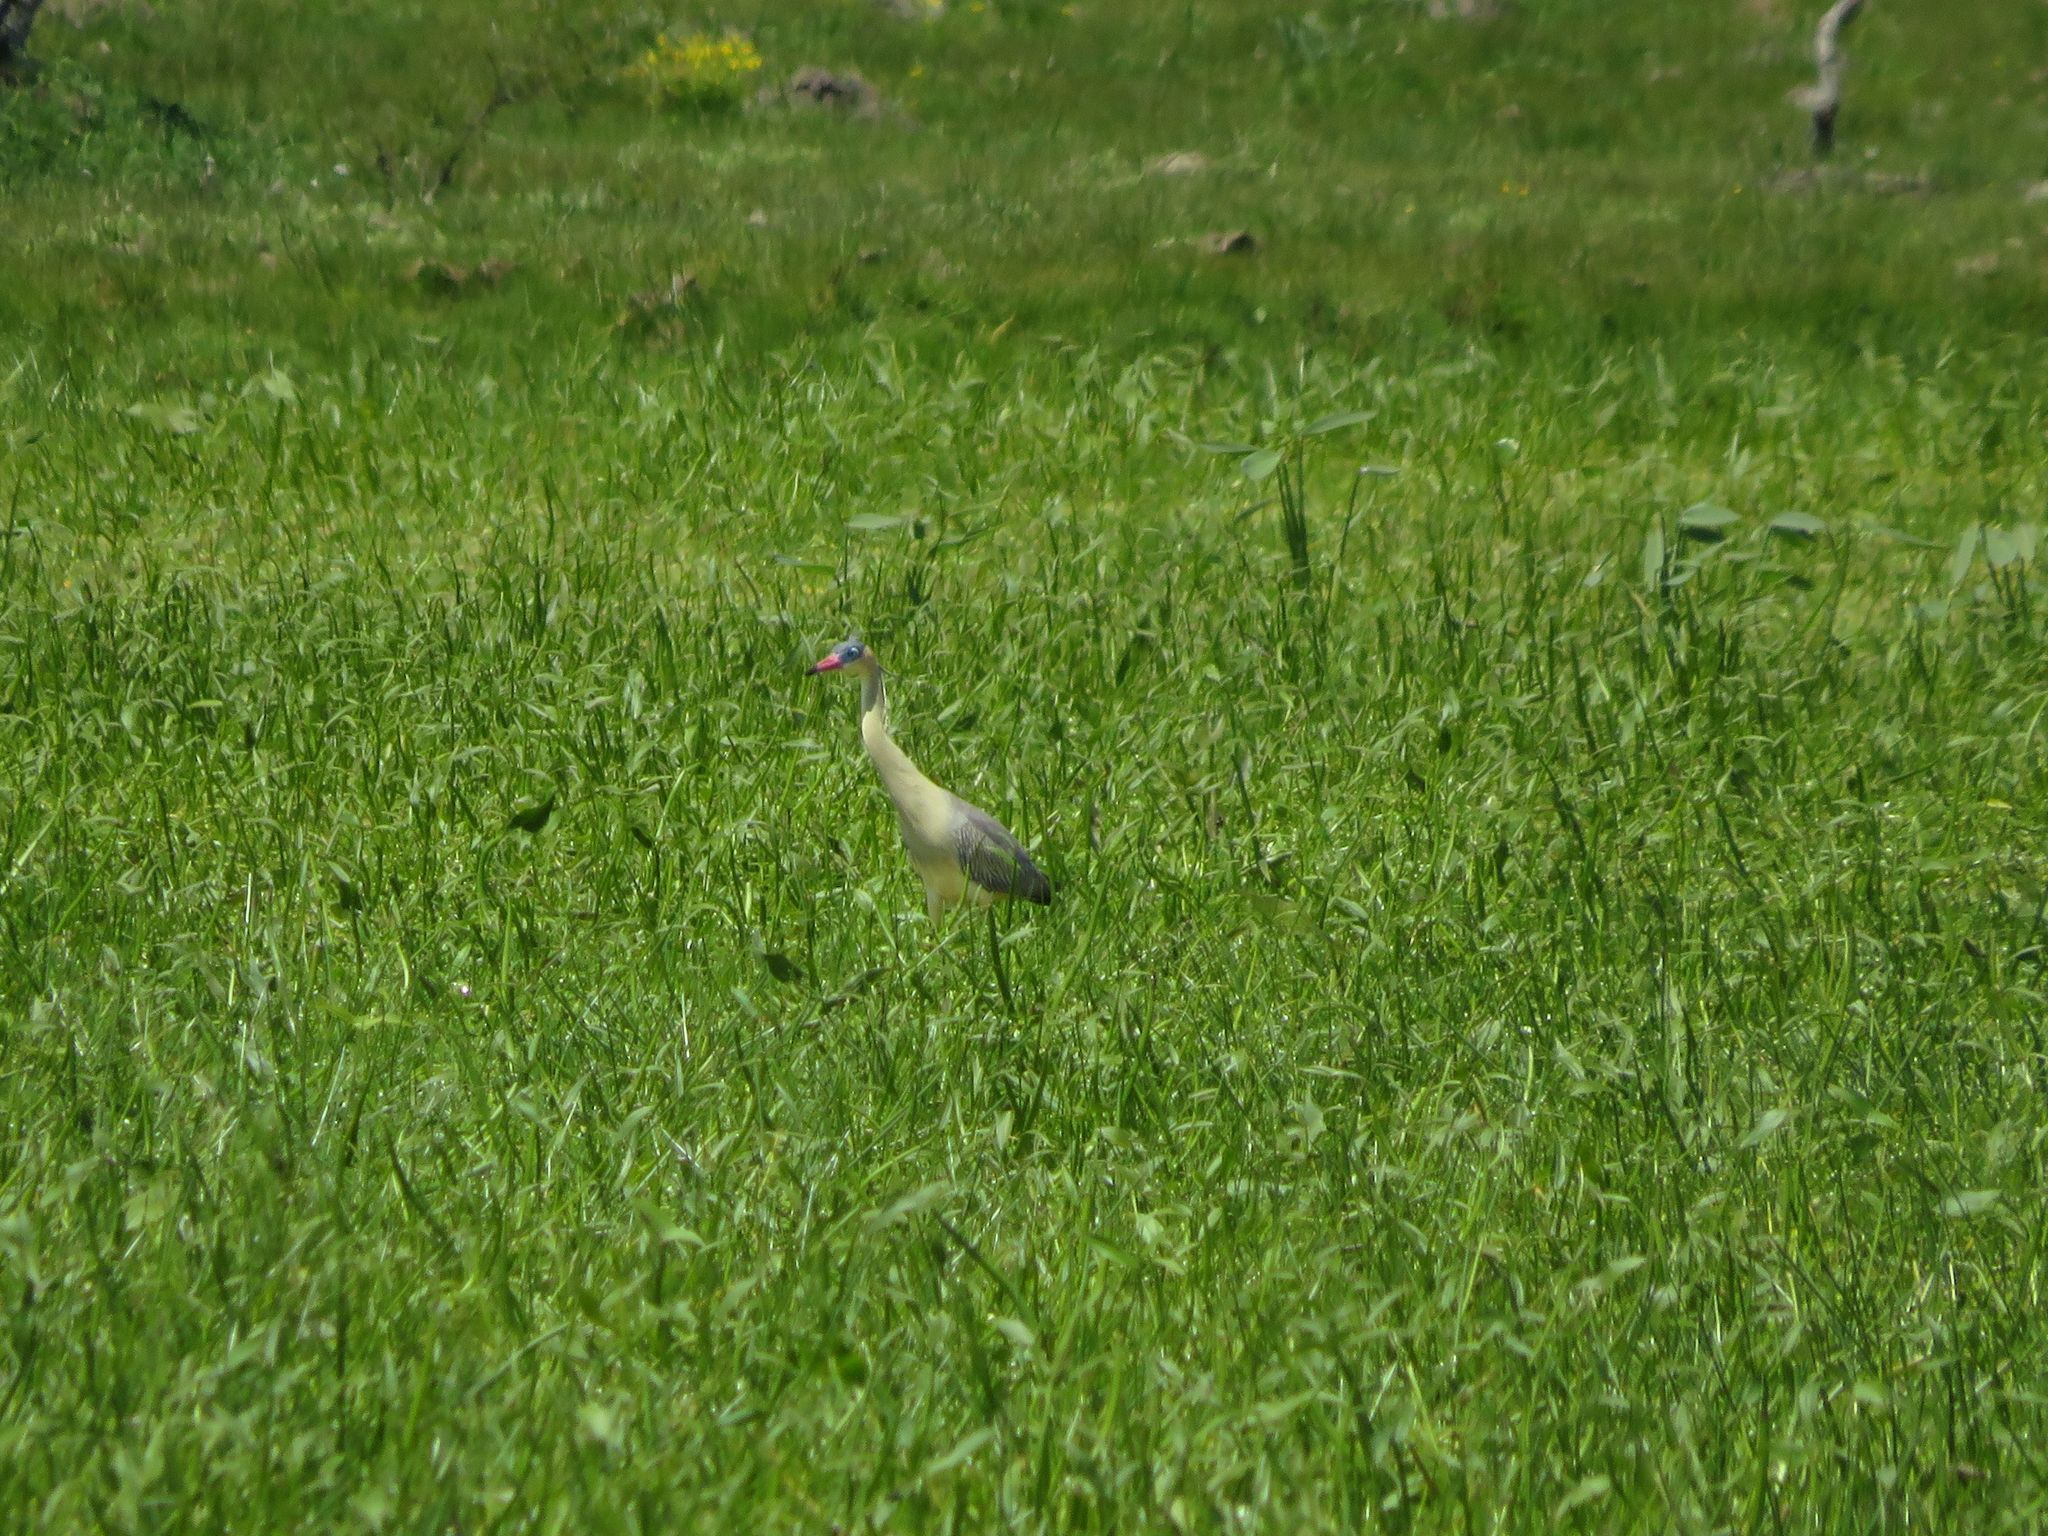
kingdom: Animalia
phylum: Chordata
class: Aves
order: Pelecaniformes
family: Ardeidae
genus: Syrigma
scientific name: Syrigma sibilatrix
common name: Whistling heron
